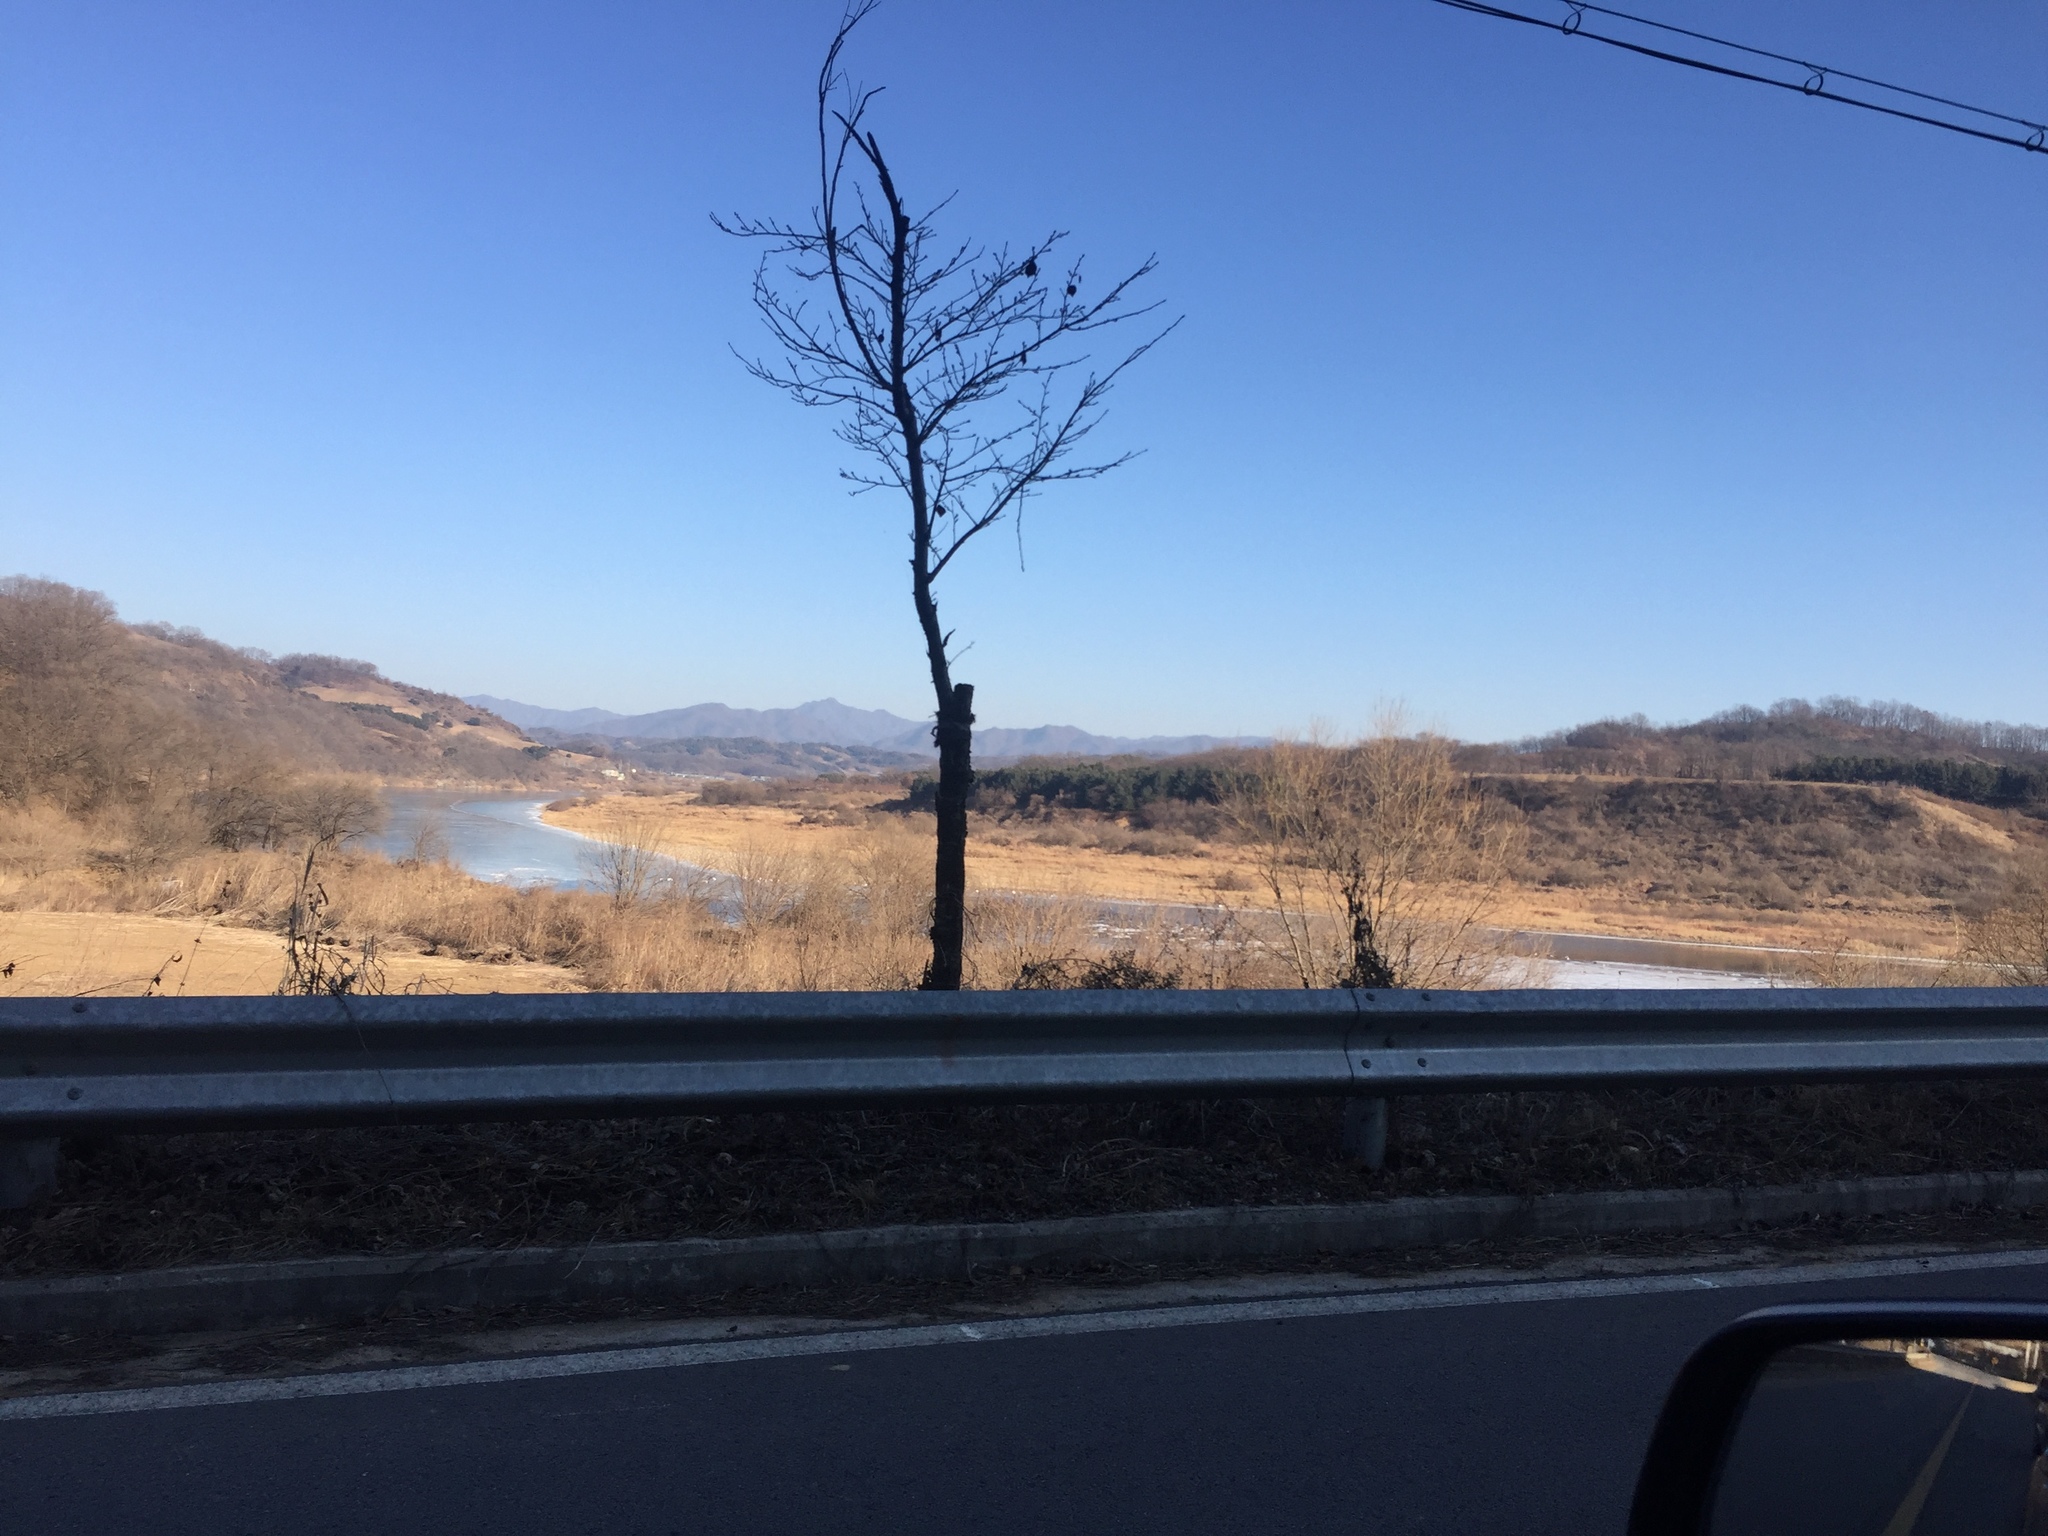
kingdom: Animalia
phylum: Chordata
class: Aves
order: Gruiformes
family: Gruidae
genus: Grus
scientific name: Grus japonensis
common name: Red-crowned crane
